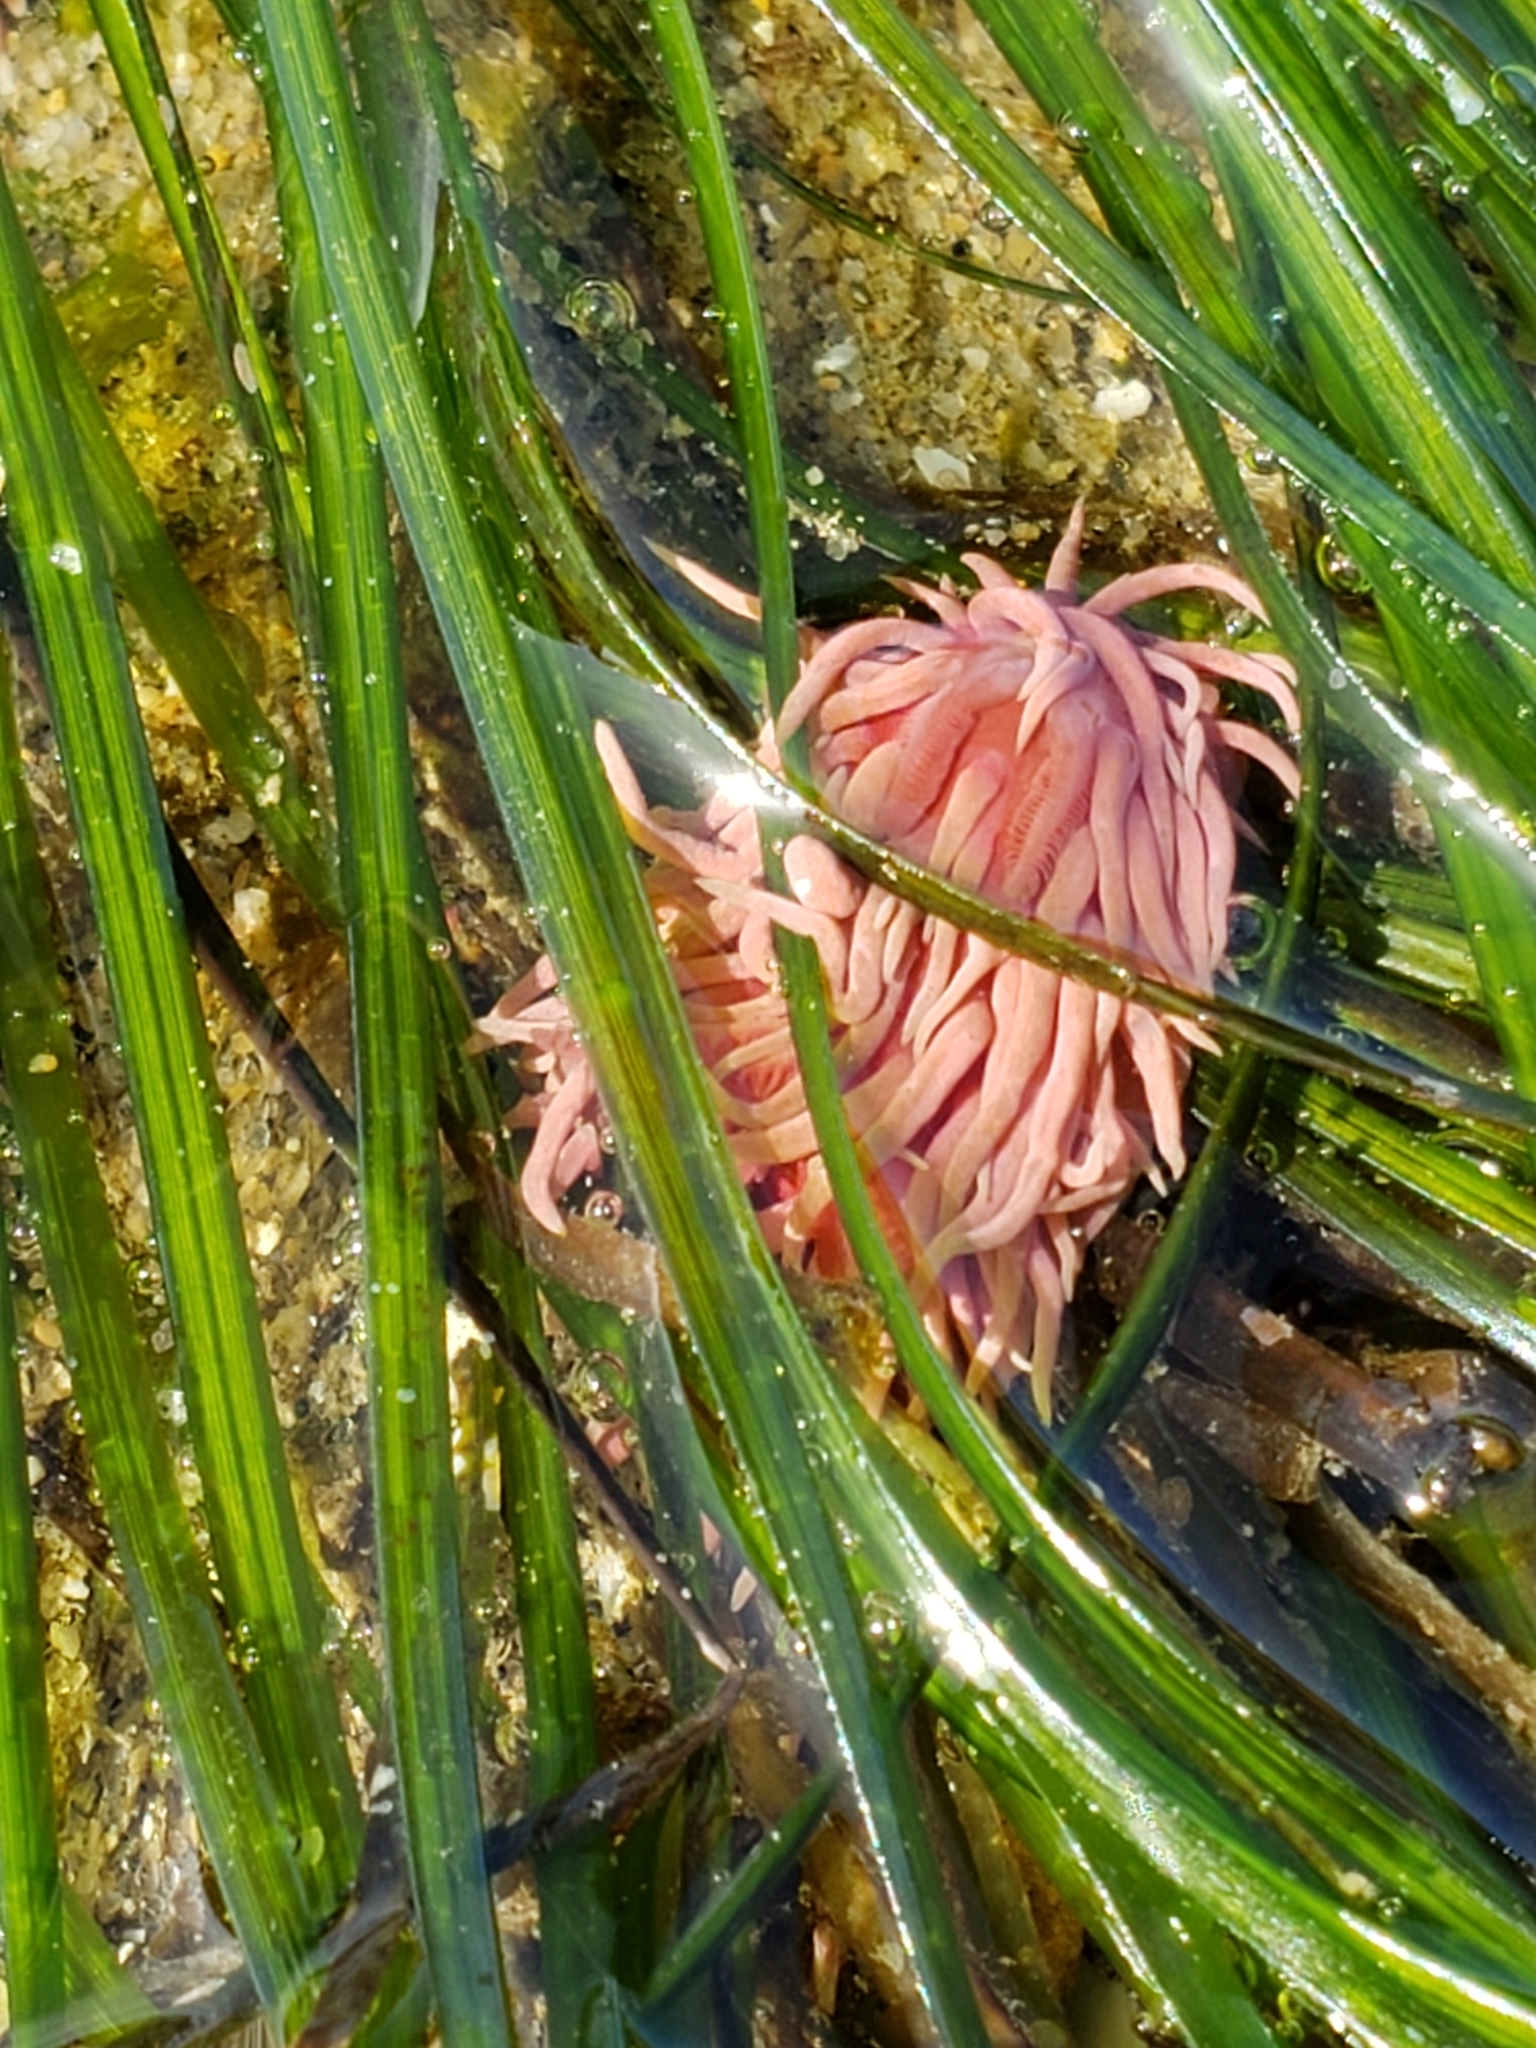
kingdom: Animalia
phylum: Mollusca
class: Gastropoda
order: Nudibranchia
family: Goniodorididae
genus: Okenia
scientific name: Okenia
